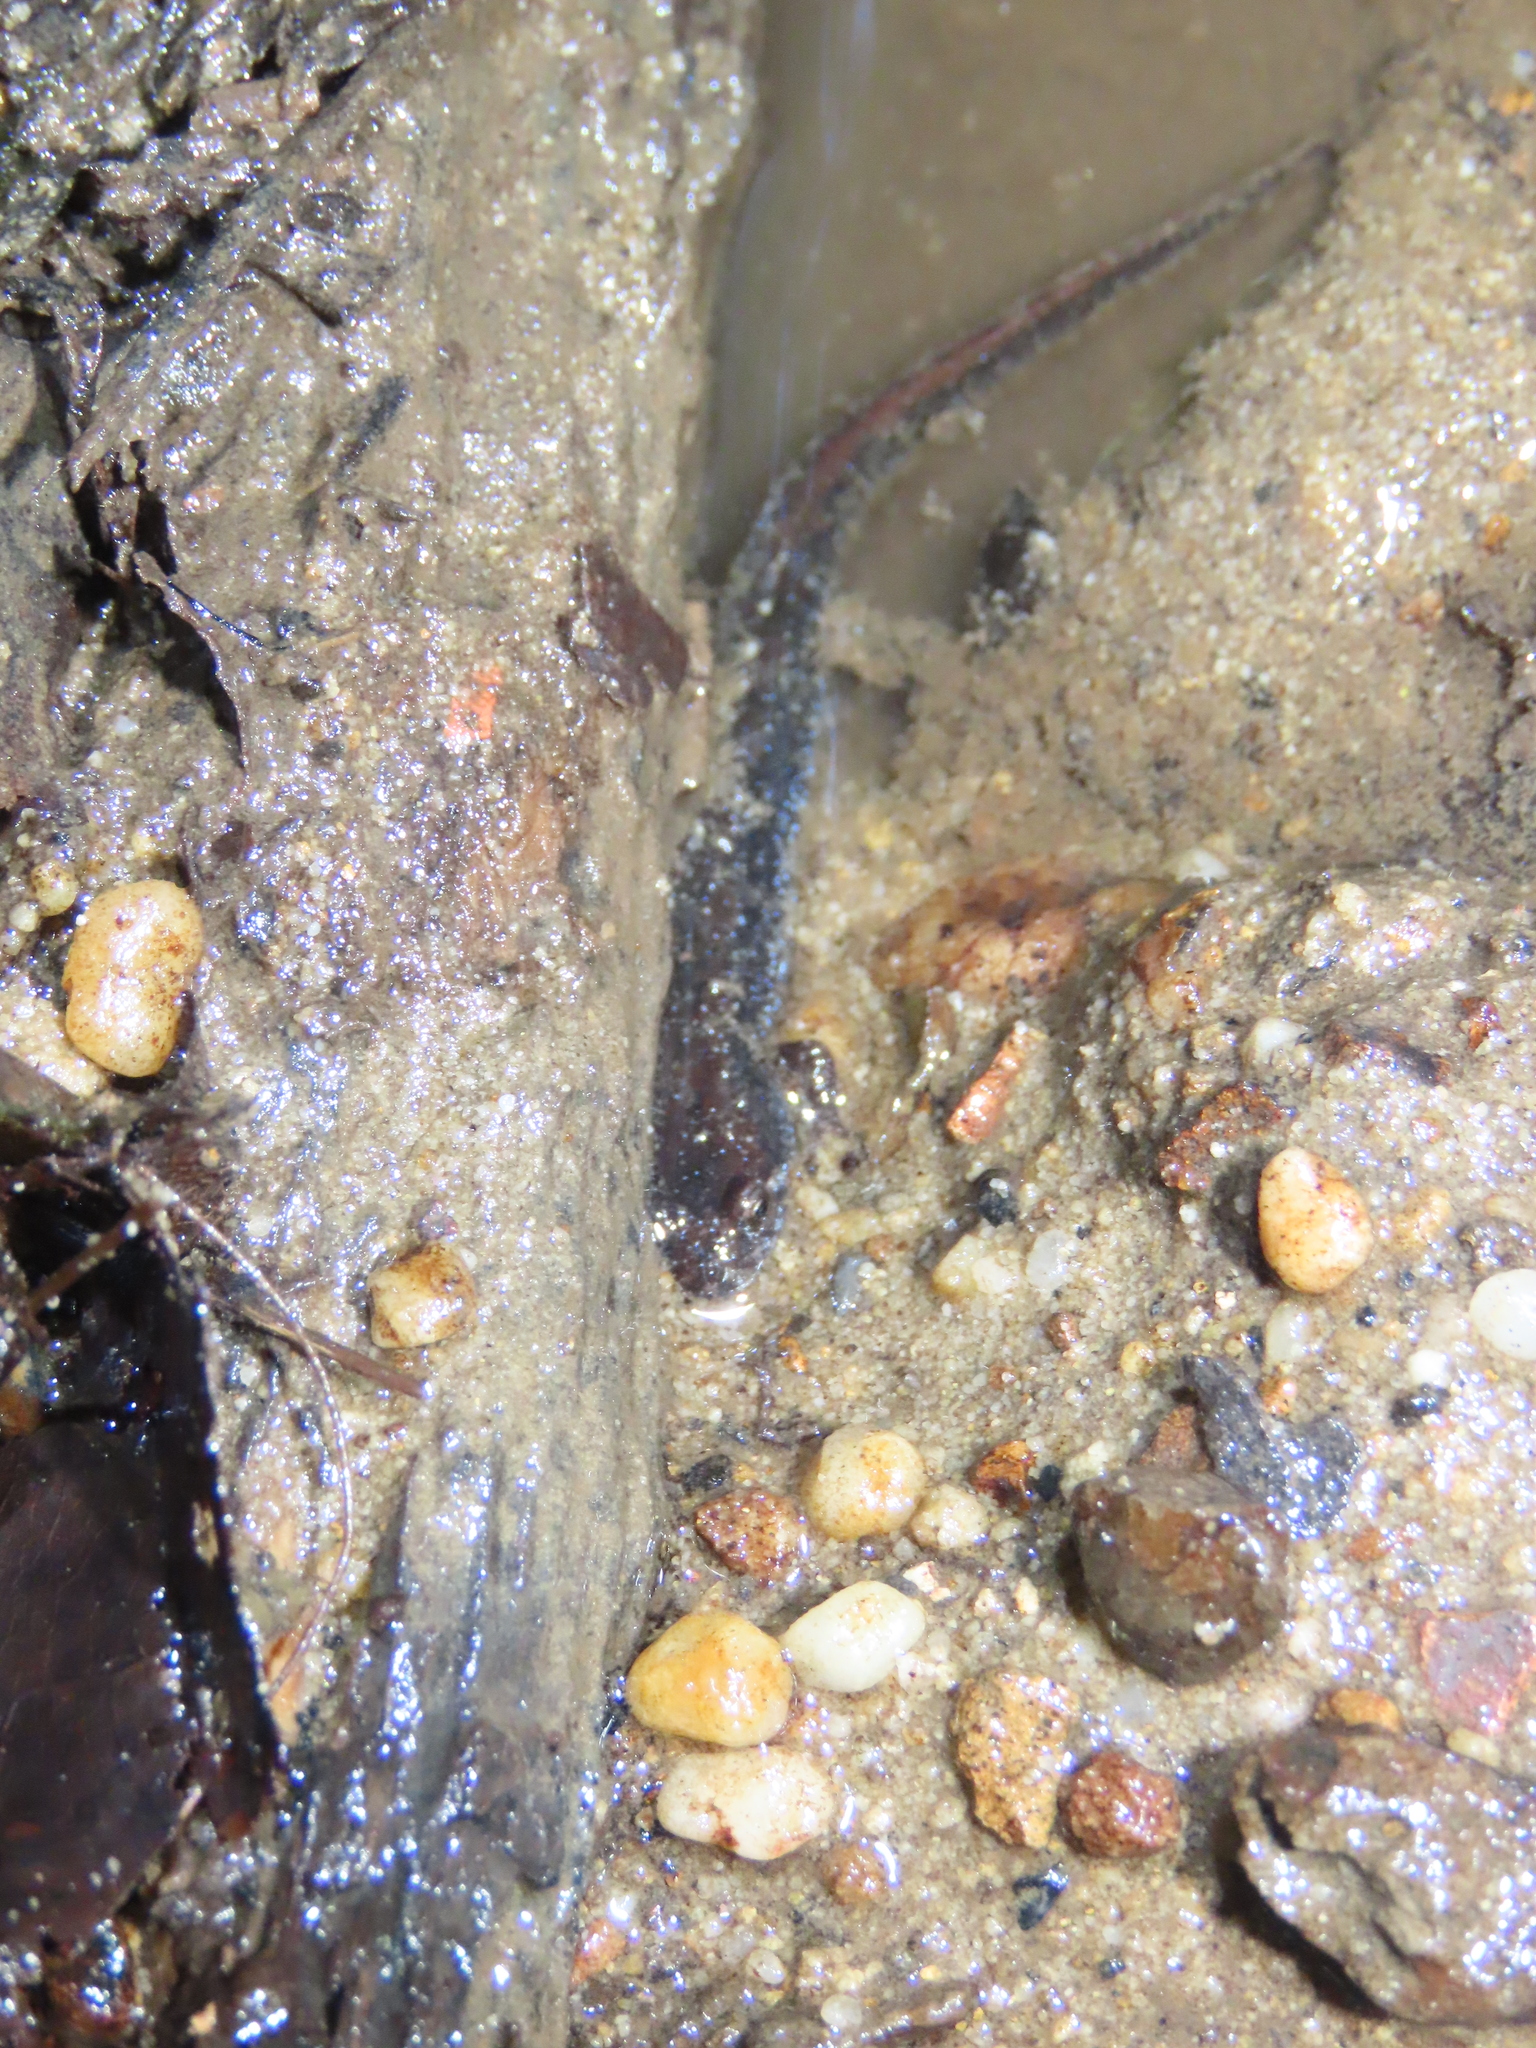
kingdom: Animalia
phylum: Chordata
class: Amphibia
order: Caudata
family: Plethodontidae
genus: Desmognathus
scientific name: Desmognathus fuscus
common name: Northern dusky salamander
